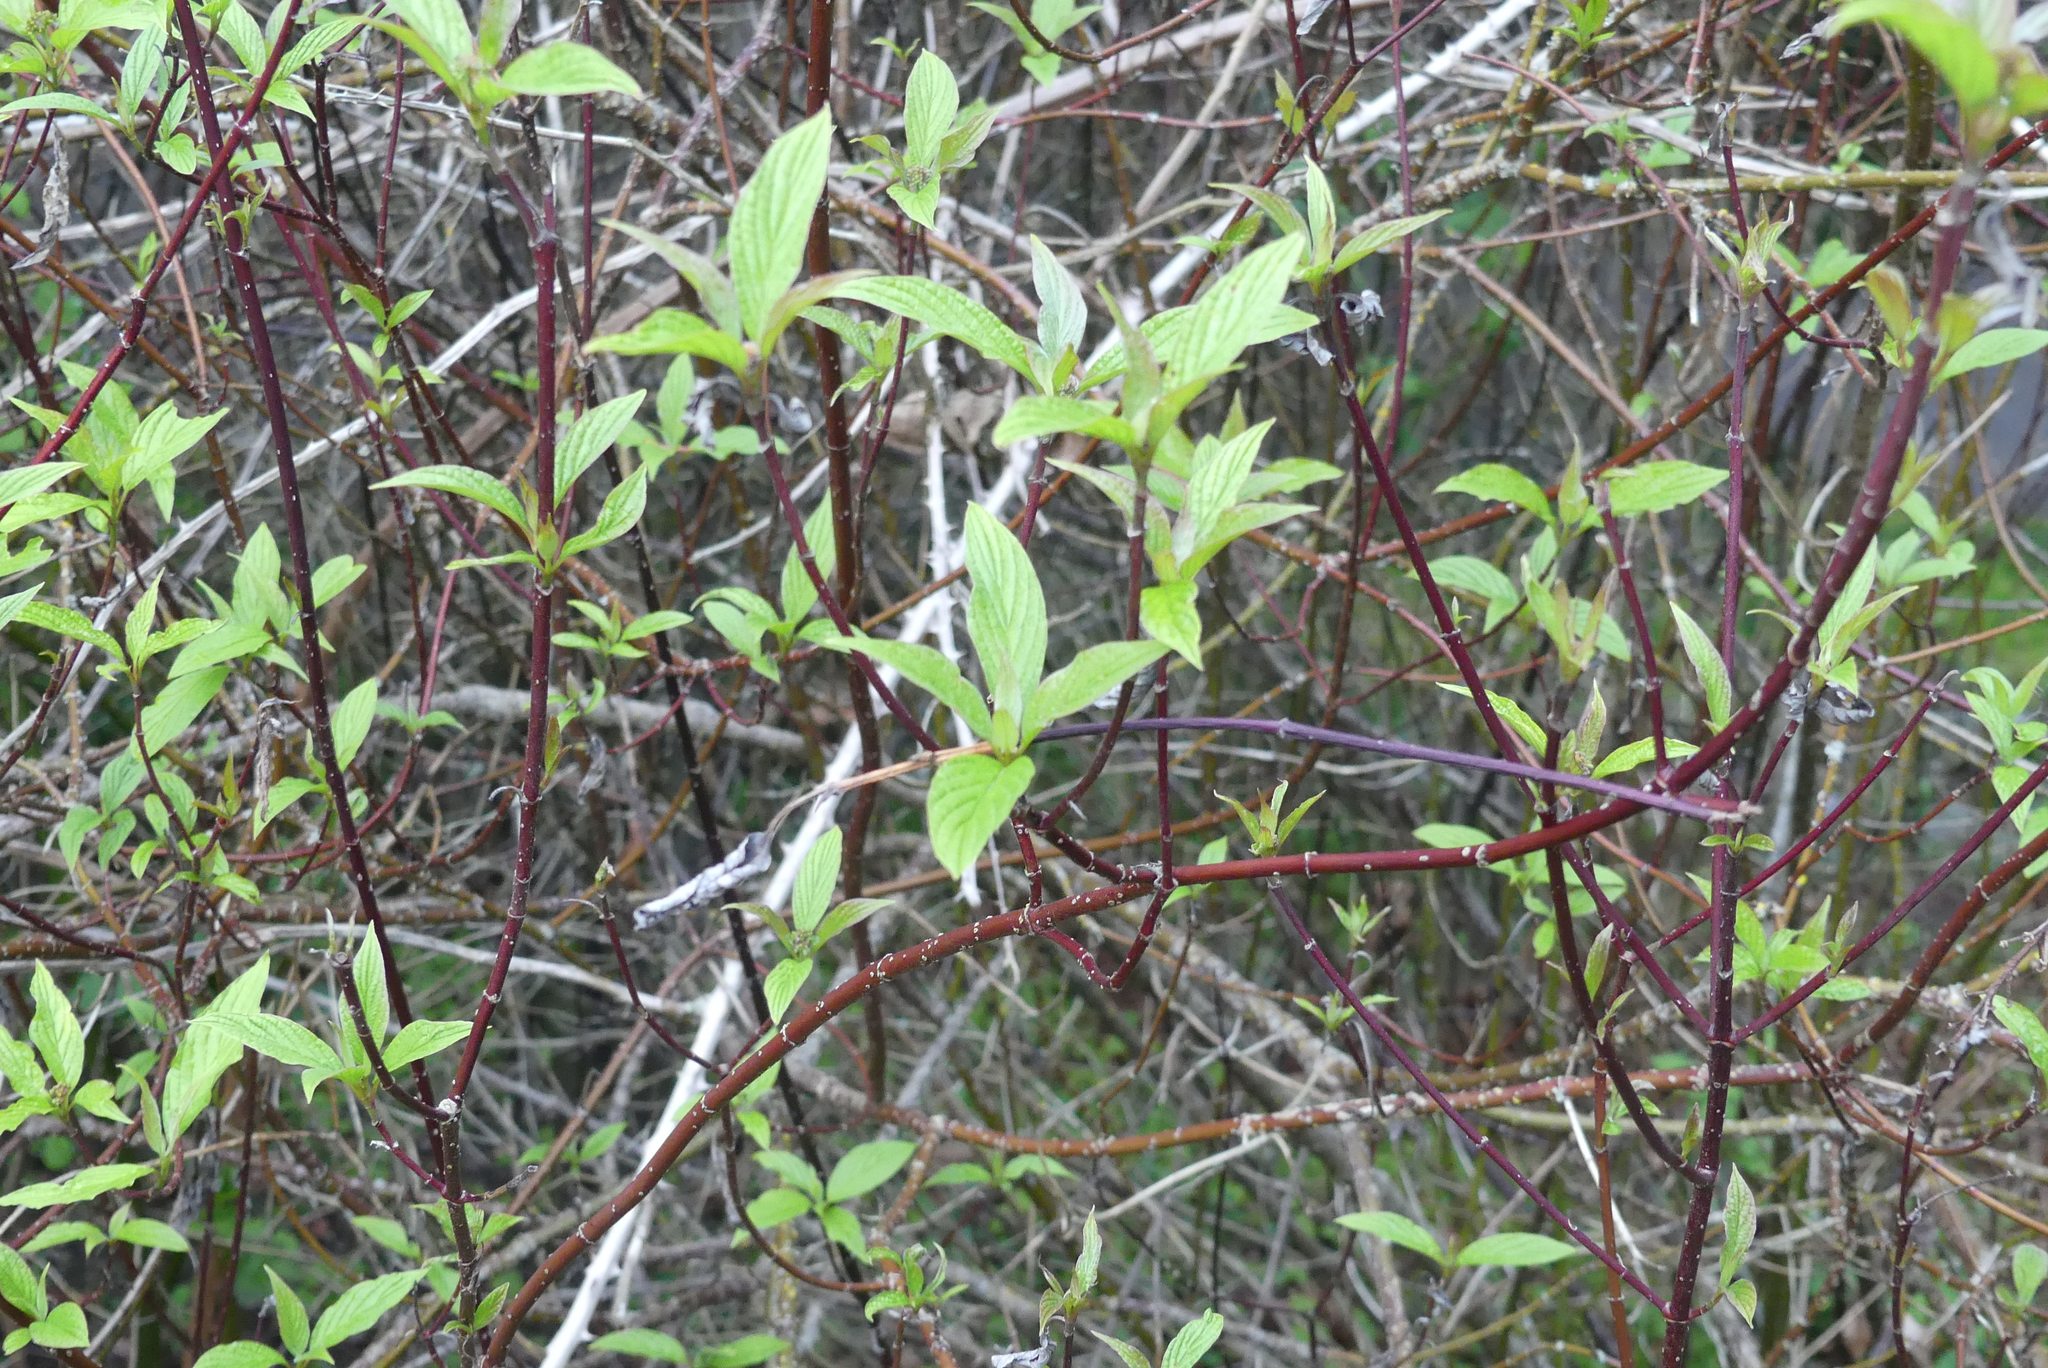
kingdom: Plantae
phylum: Tracheophyta
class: Magnoliopsida
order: Cornales
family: Cornaceae
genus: Cornus
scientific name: Cornus sericea
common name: Red-osier dogwood
